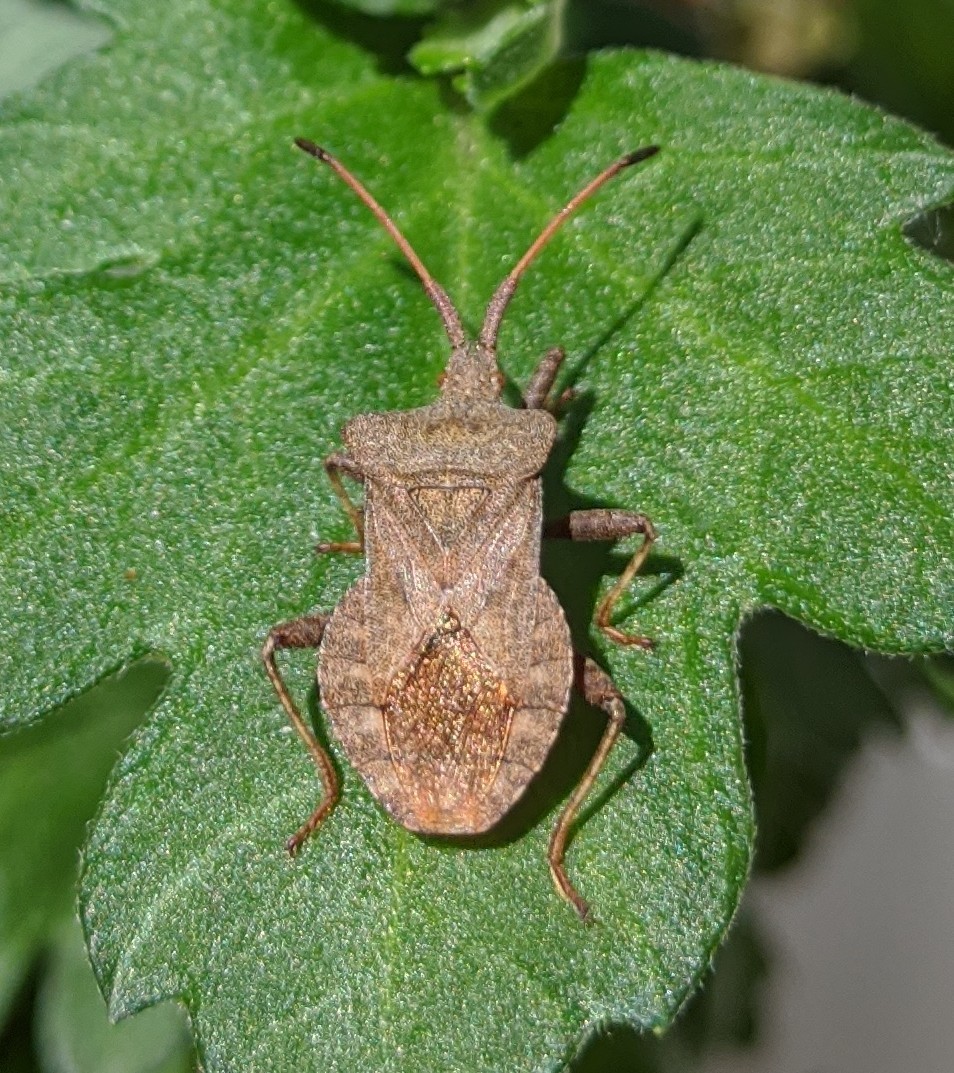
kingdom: Animalia
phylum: Arthropoda
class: Insecta
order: Hemiptera
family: Coreidae
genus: Coreus
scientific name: Coreus marginatus
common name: Dock bug
